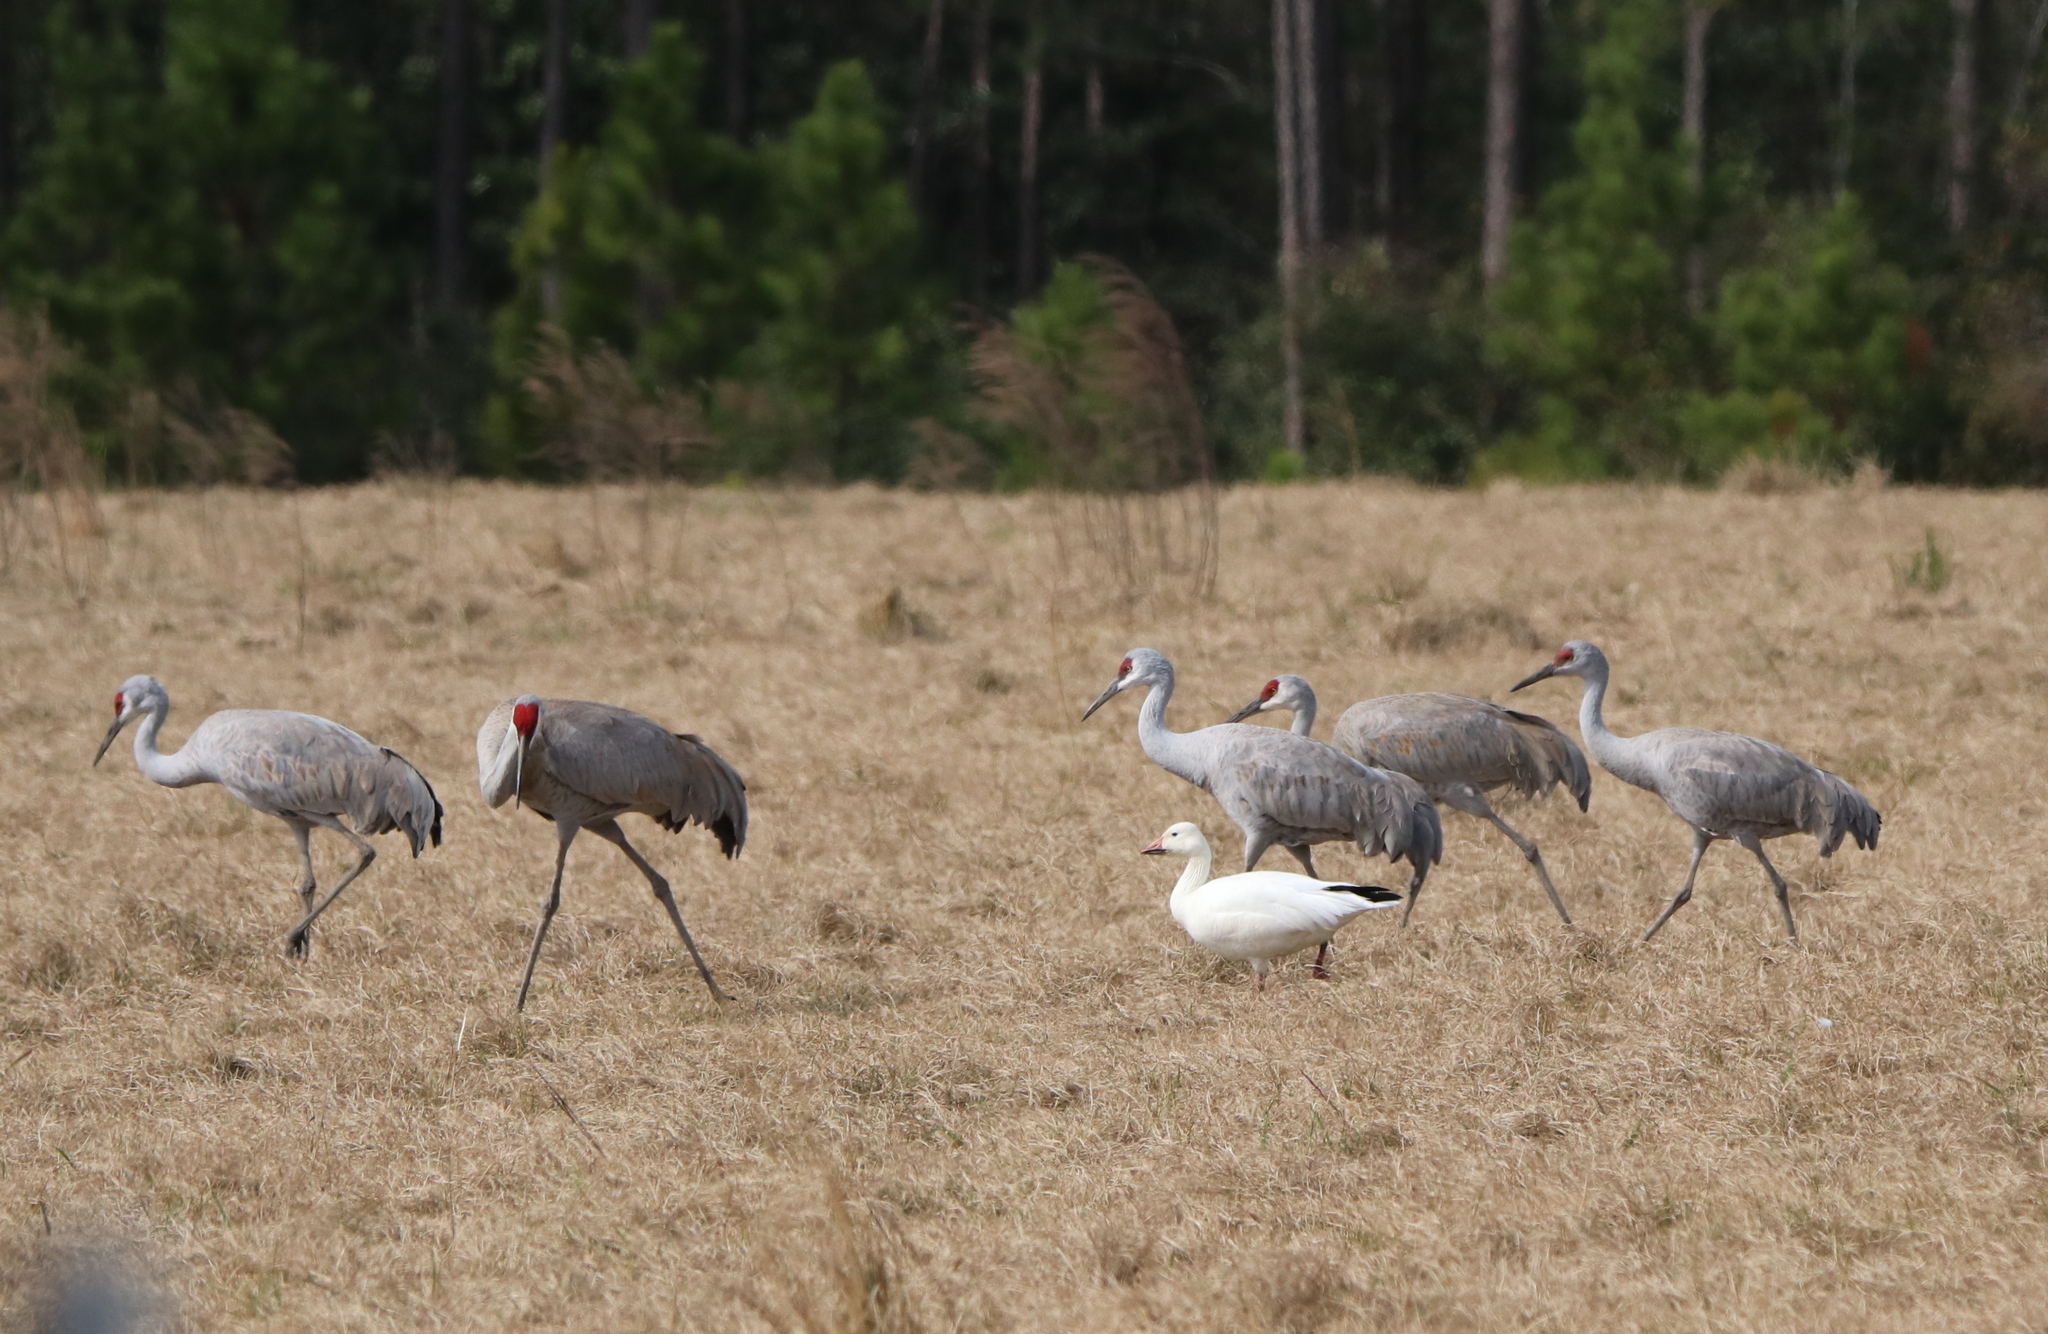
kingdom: Animalia
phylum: Chordata
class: Aves
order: Anseriformes
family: Anatidae
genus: Anser
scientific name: Anser caerulescens
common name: Snow goose
